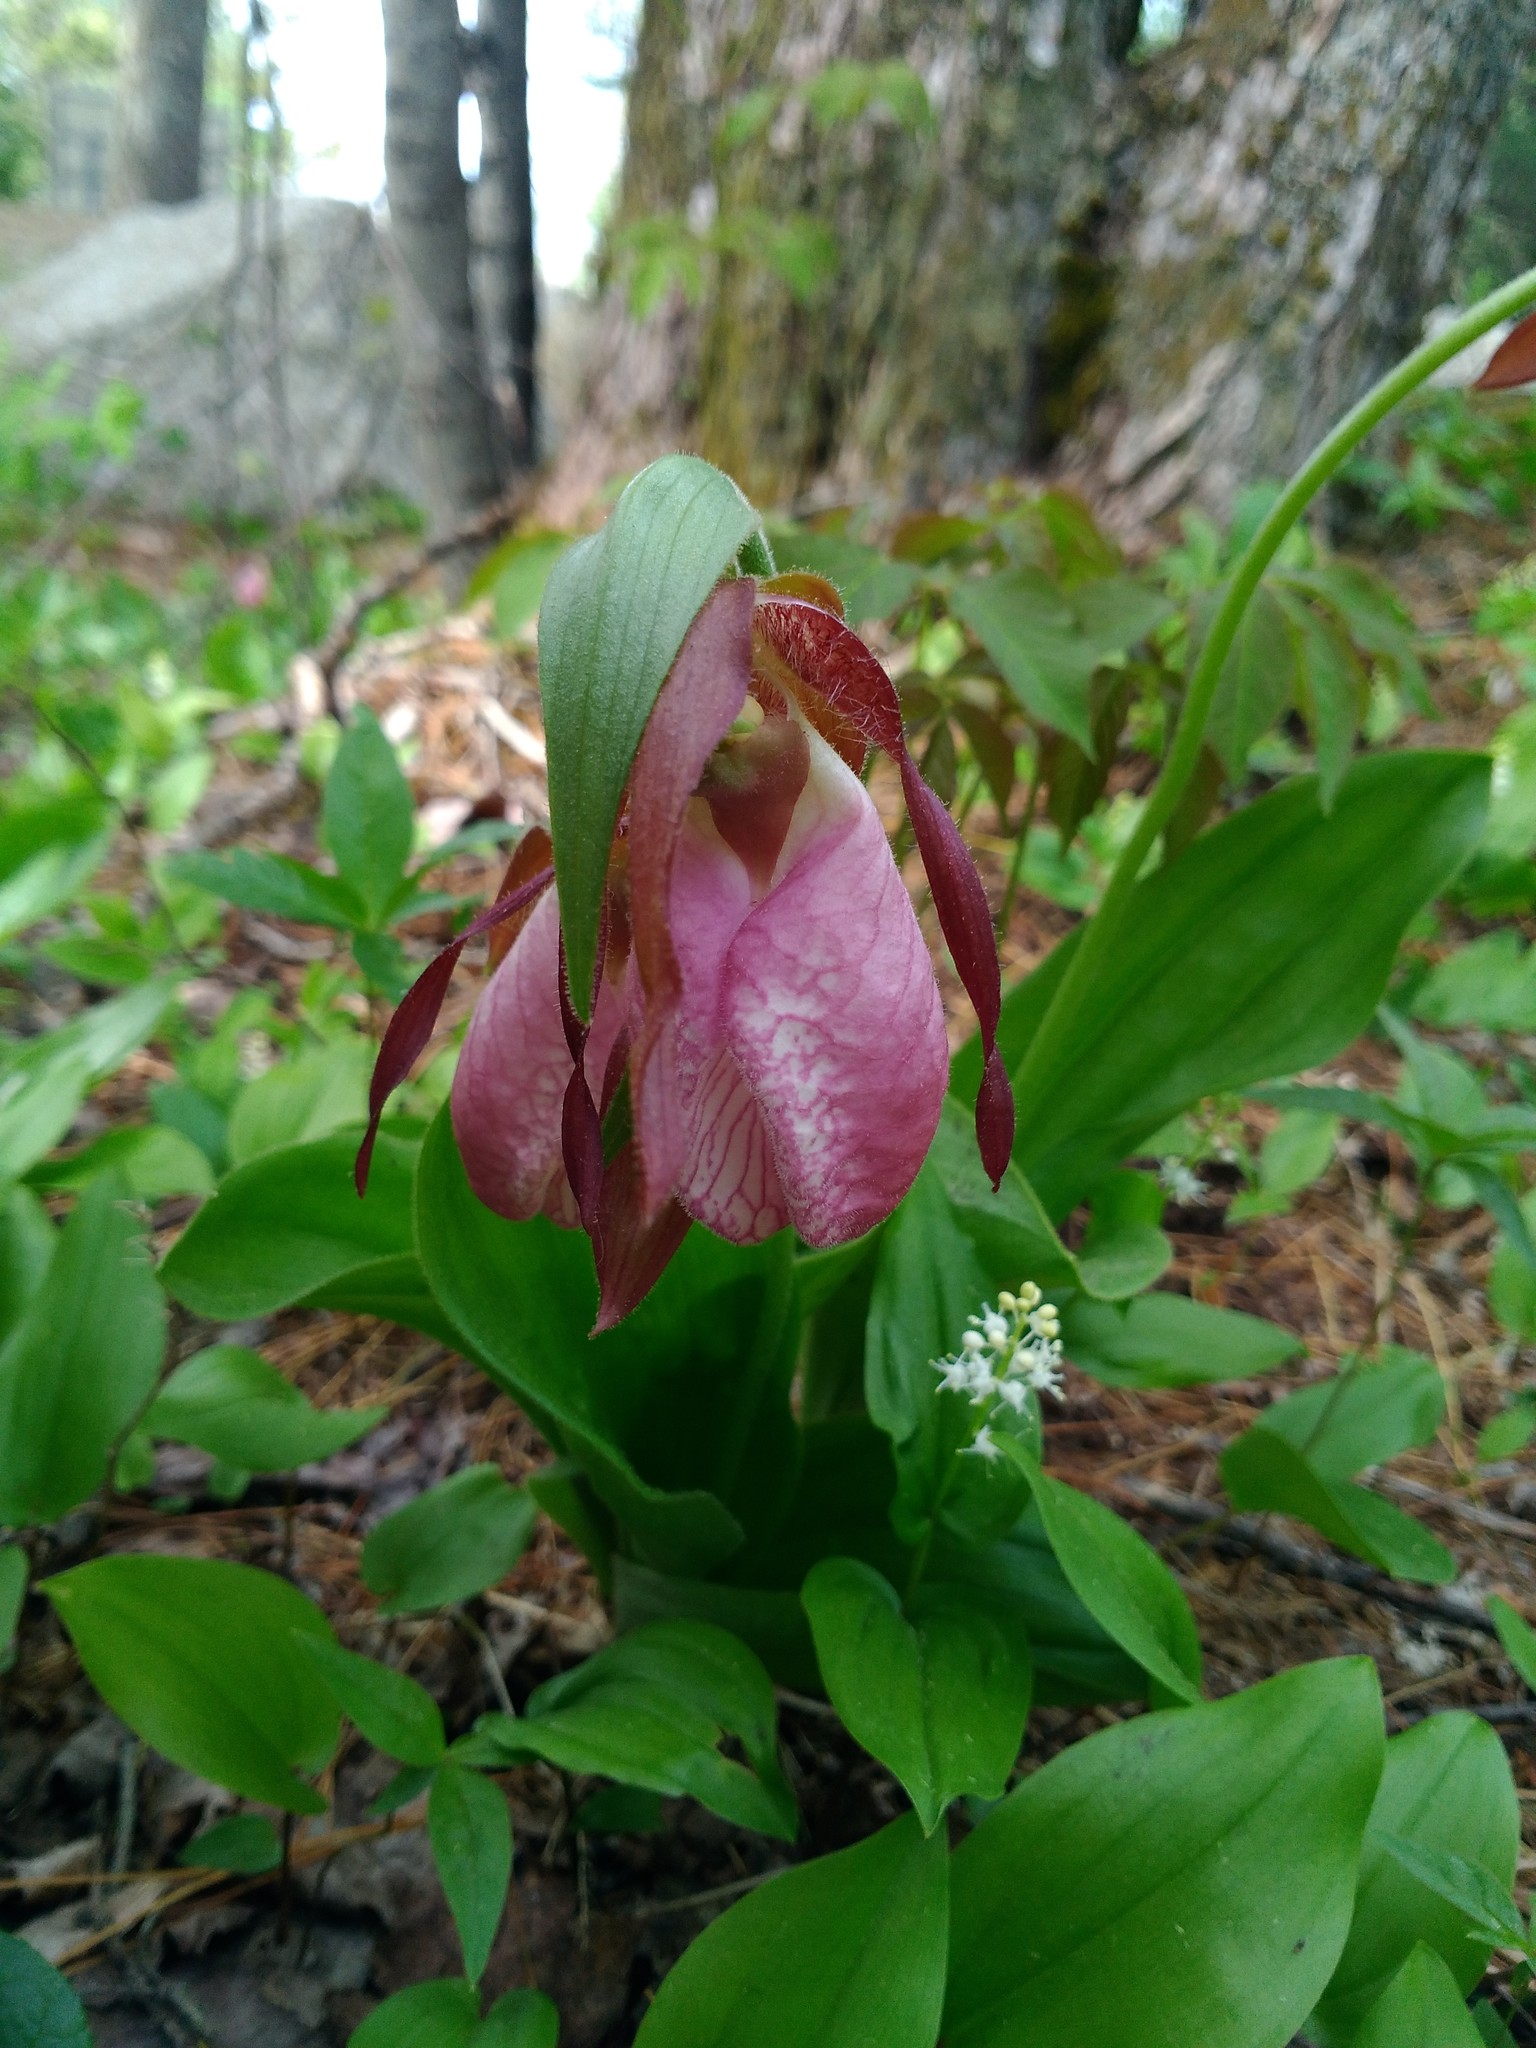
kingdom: Plantae
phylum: Tracheophyta
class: Liliopsida
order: Asparagales
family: Orchidaceae
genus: Cypripedium
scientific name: Cypripedium acaule
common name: Pink lady's-slipper
